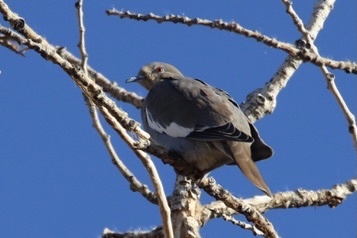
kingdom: Animalia
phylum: Chordata
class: Aves
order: Columbiformes
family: Columbidae
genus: Zenaida
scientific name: Zenaida asiatica
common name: White-winged dove
